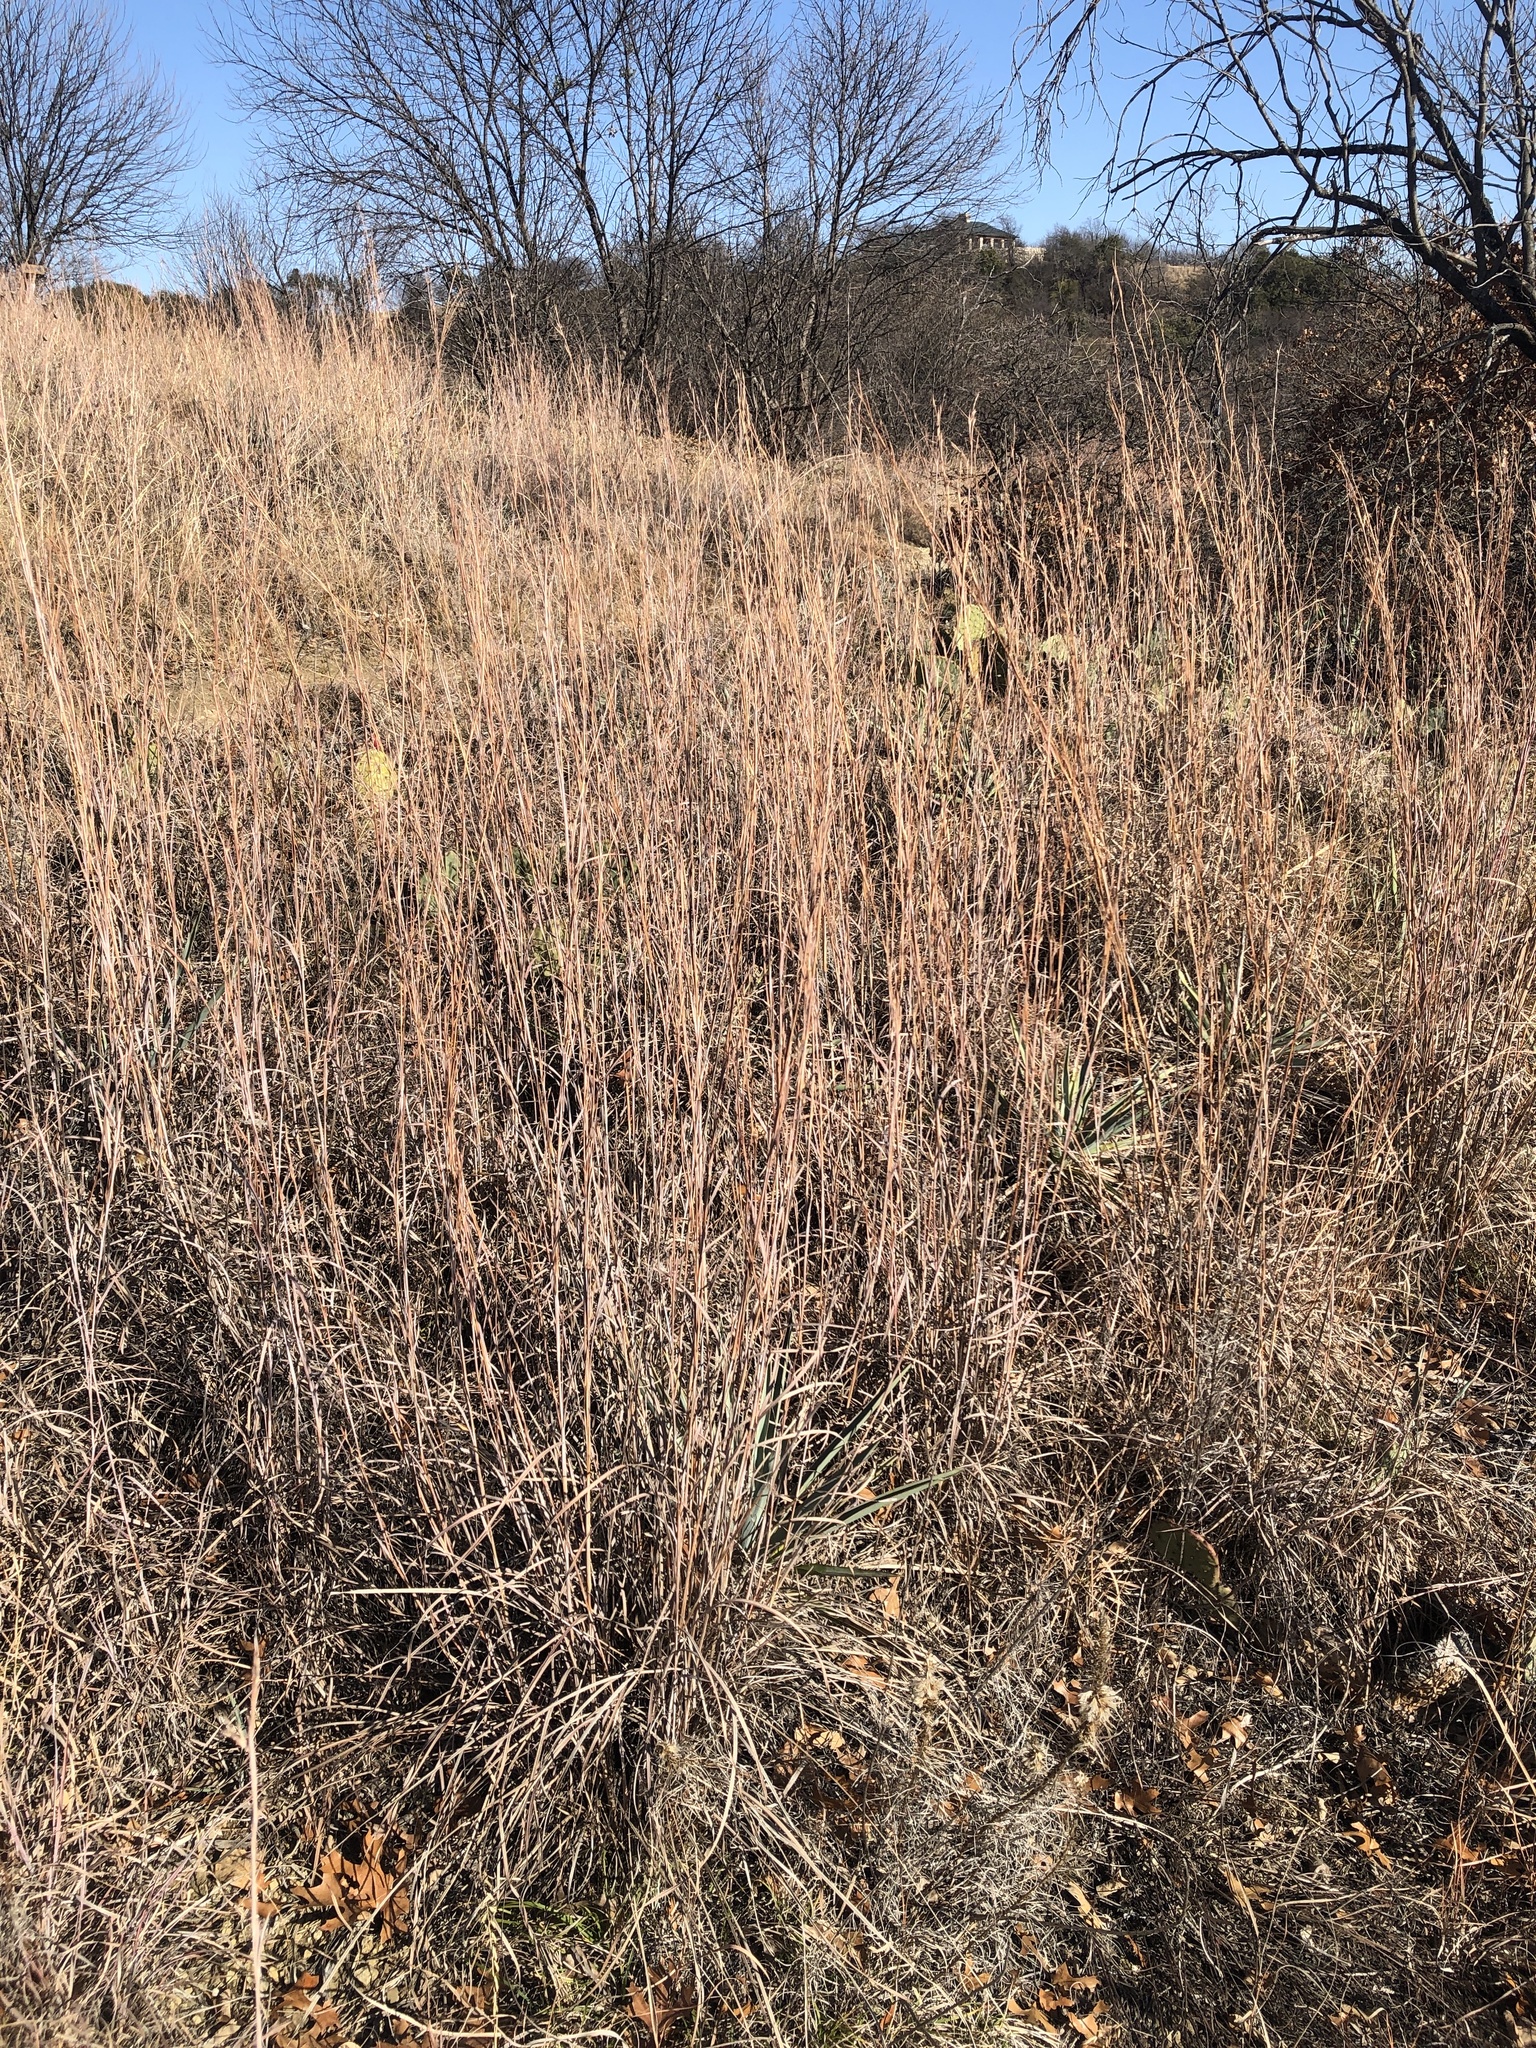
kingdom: Plantae
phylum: Tracheophyta
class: Liliopsida
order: Poales
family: Poaceae
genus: Schizachyrium
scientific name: Schizachyrium scoparium
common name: Little bluestem
